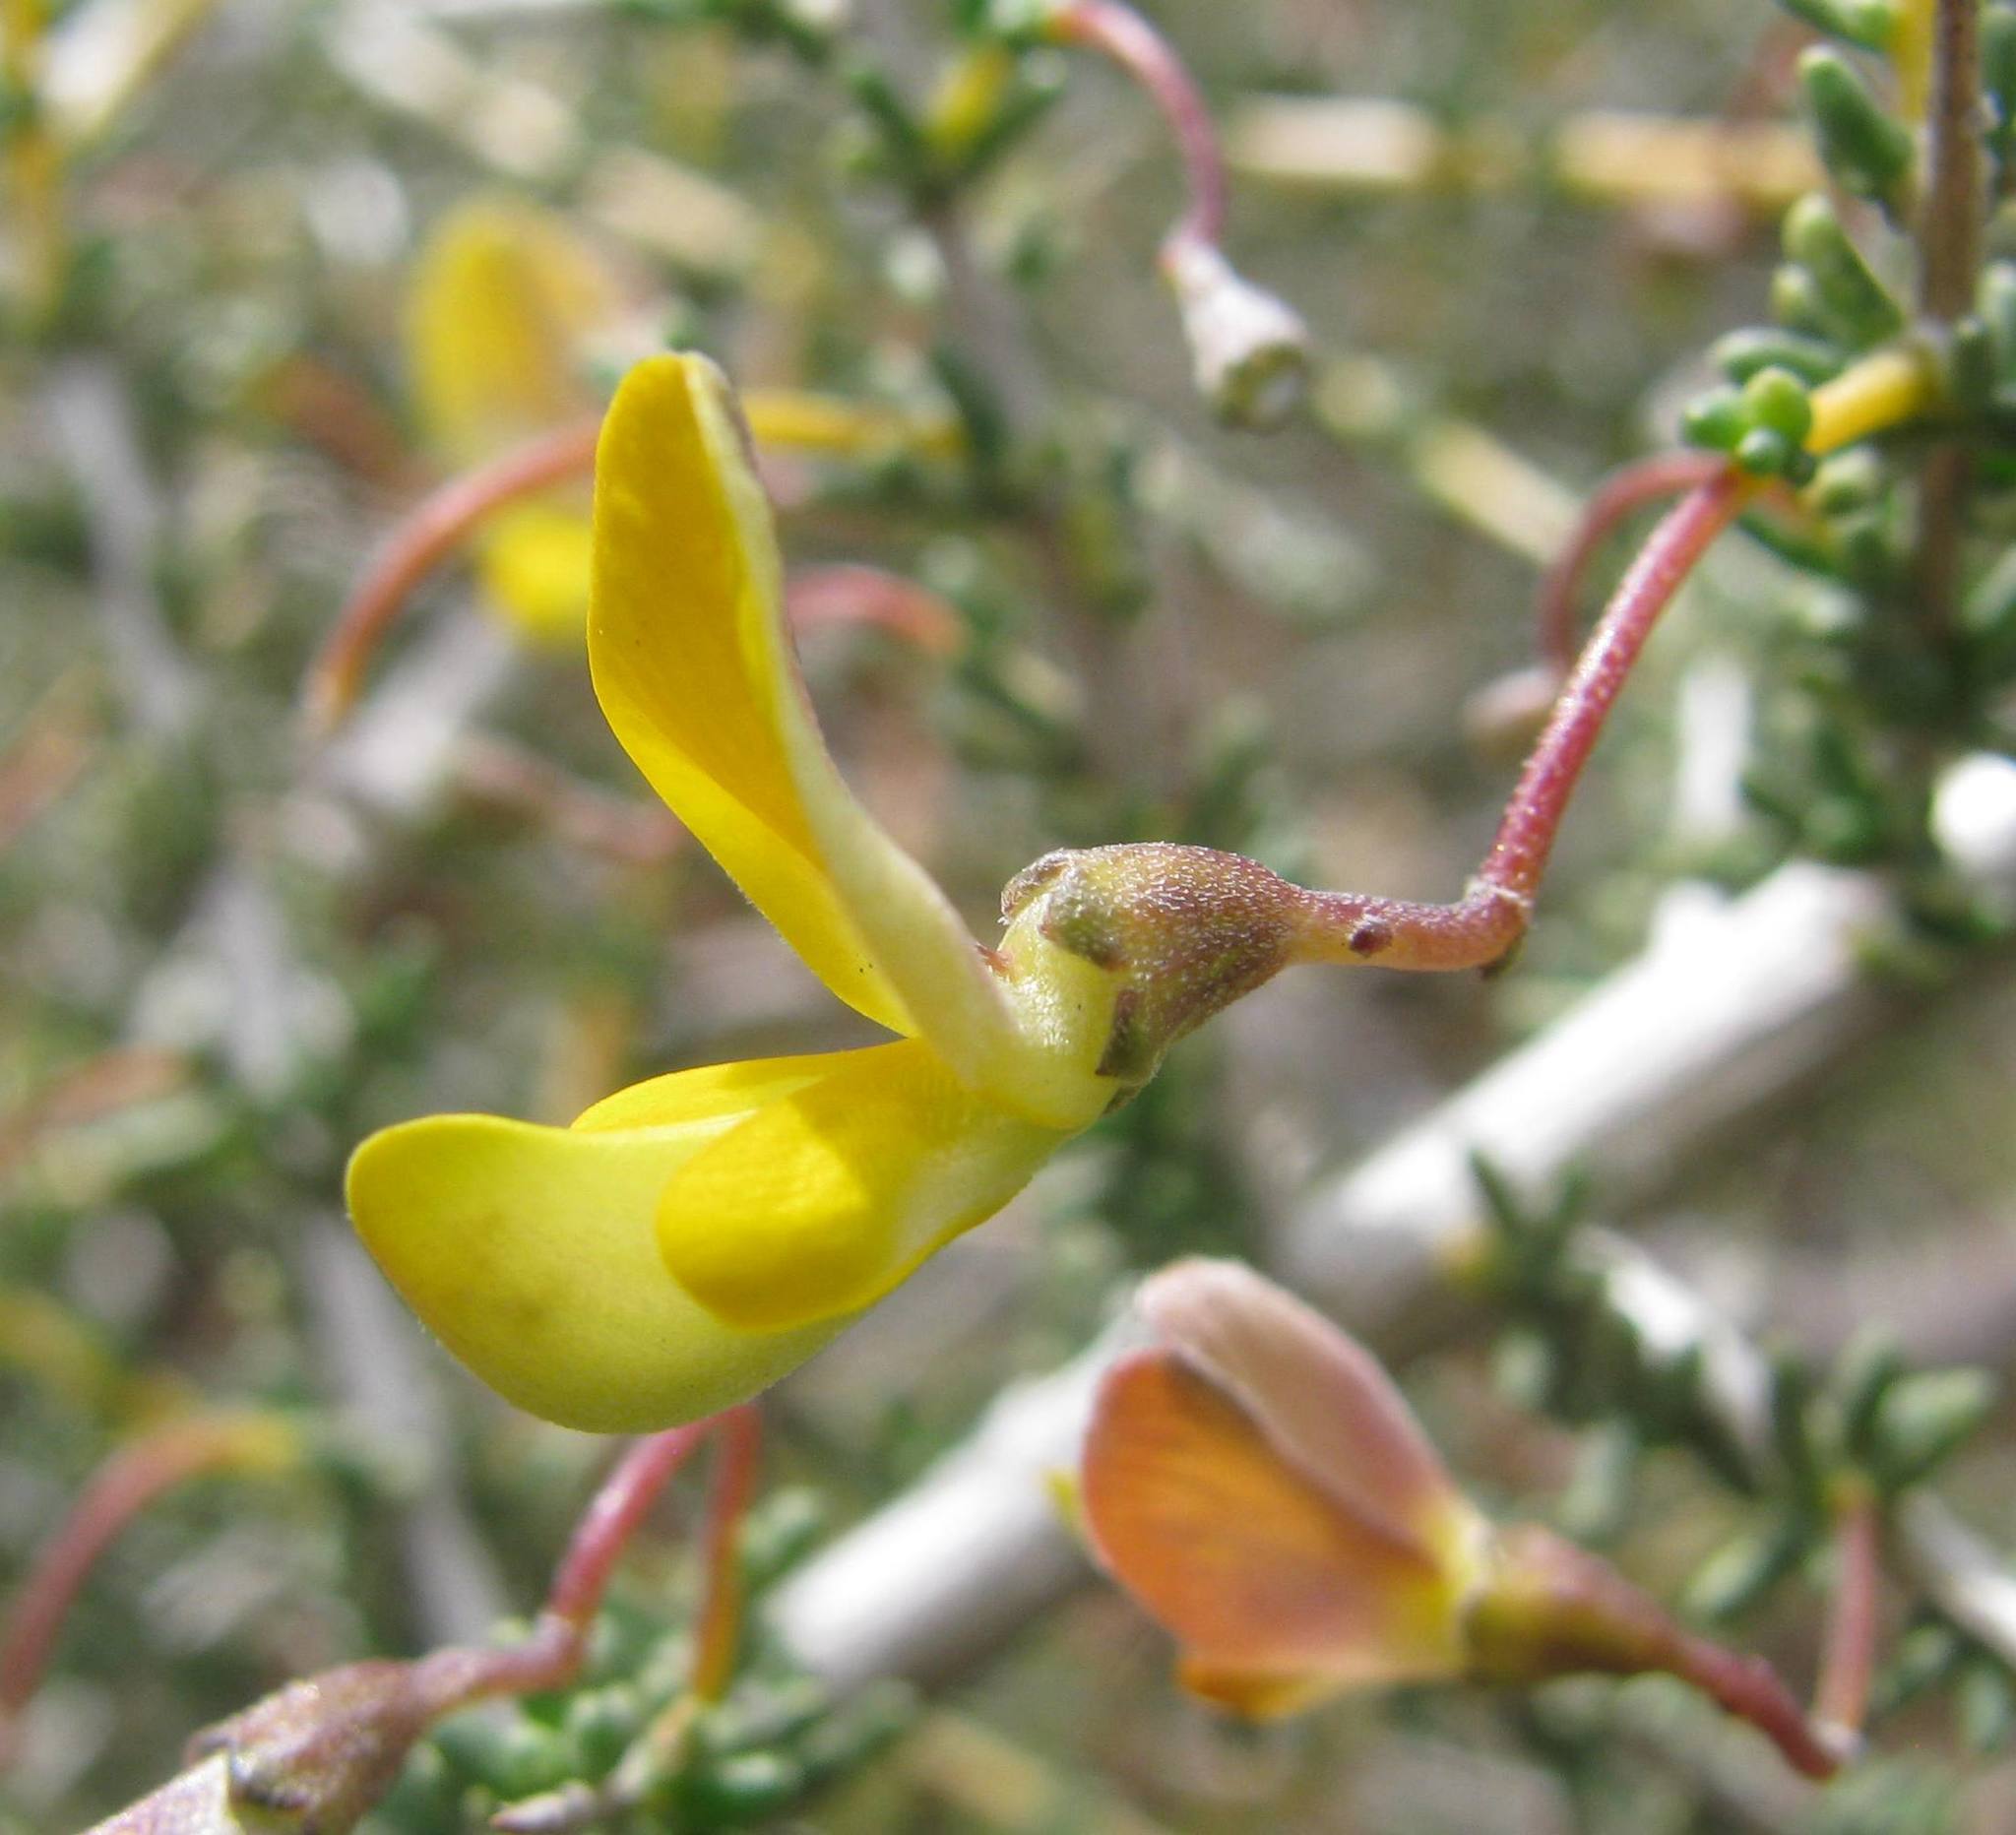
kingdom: Plantae
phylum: Tracheophyta
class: Magnoliopsida
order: Fabales
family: Fabaceae
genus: Aspalathus
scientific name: Aspalathus acanthoclada
